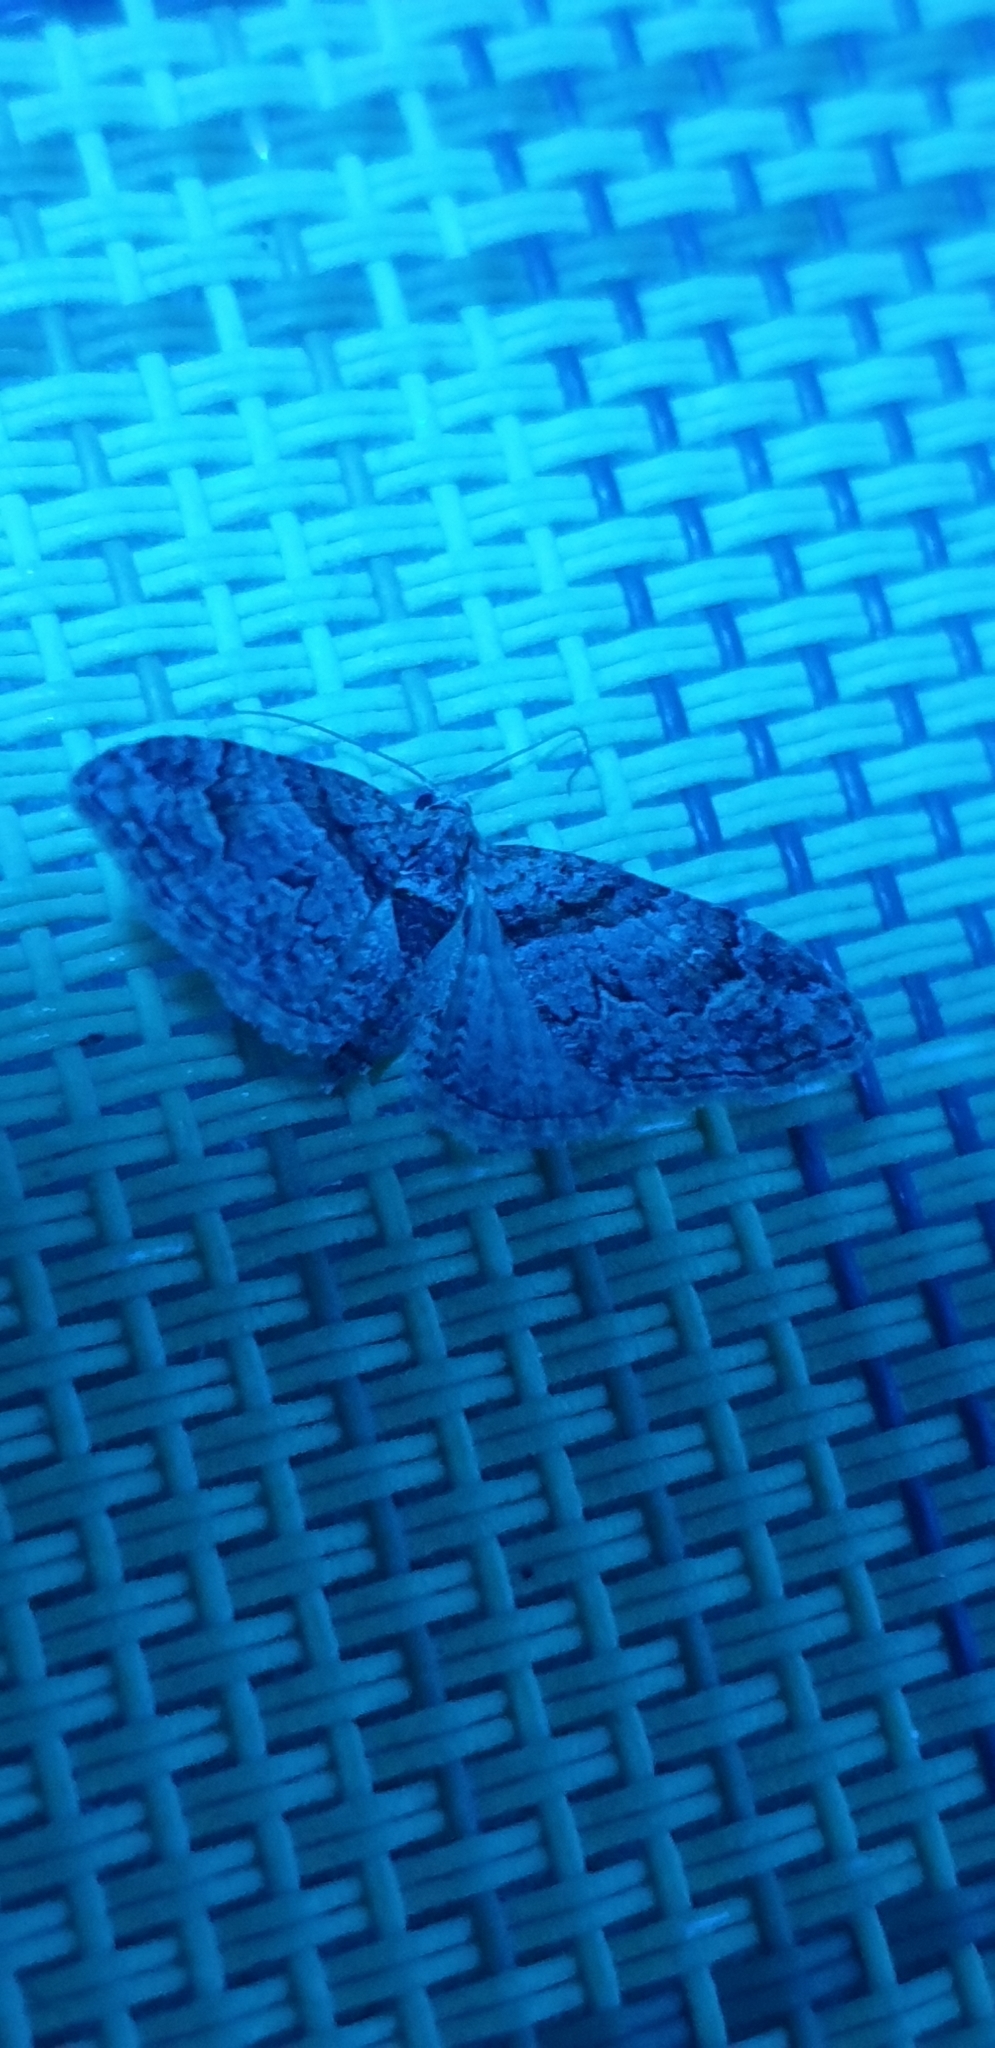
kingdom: Animalia
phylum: Arthropoda
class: Insecta
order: Lepidoptera
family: Geometridae
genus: Phrissogonus
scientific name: Phrissogonus laticostata
